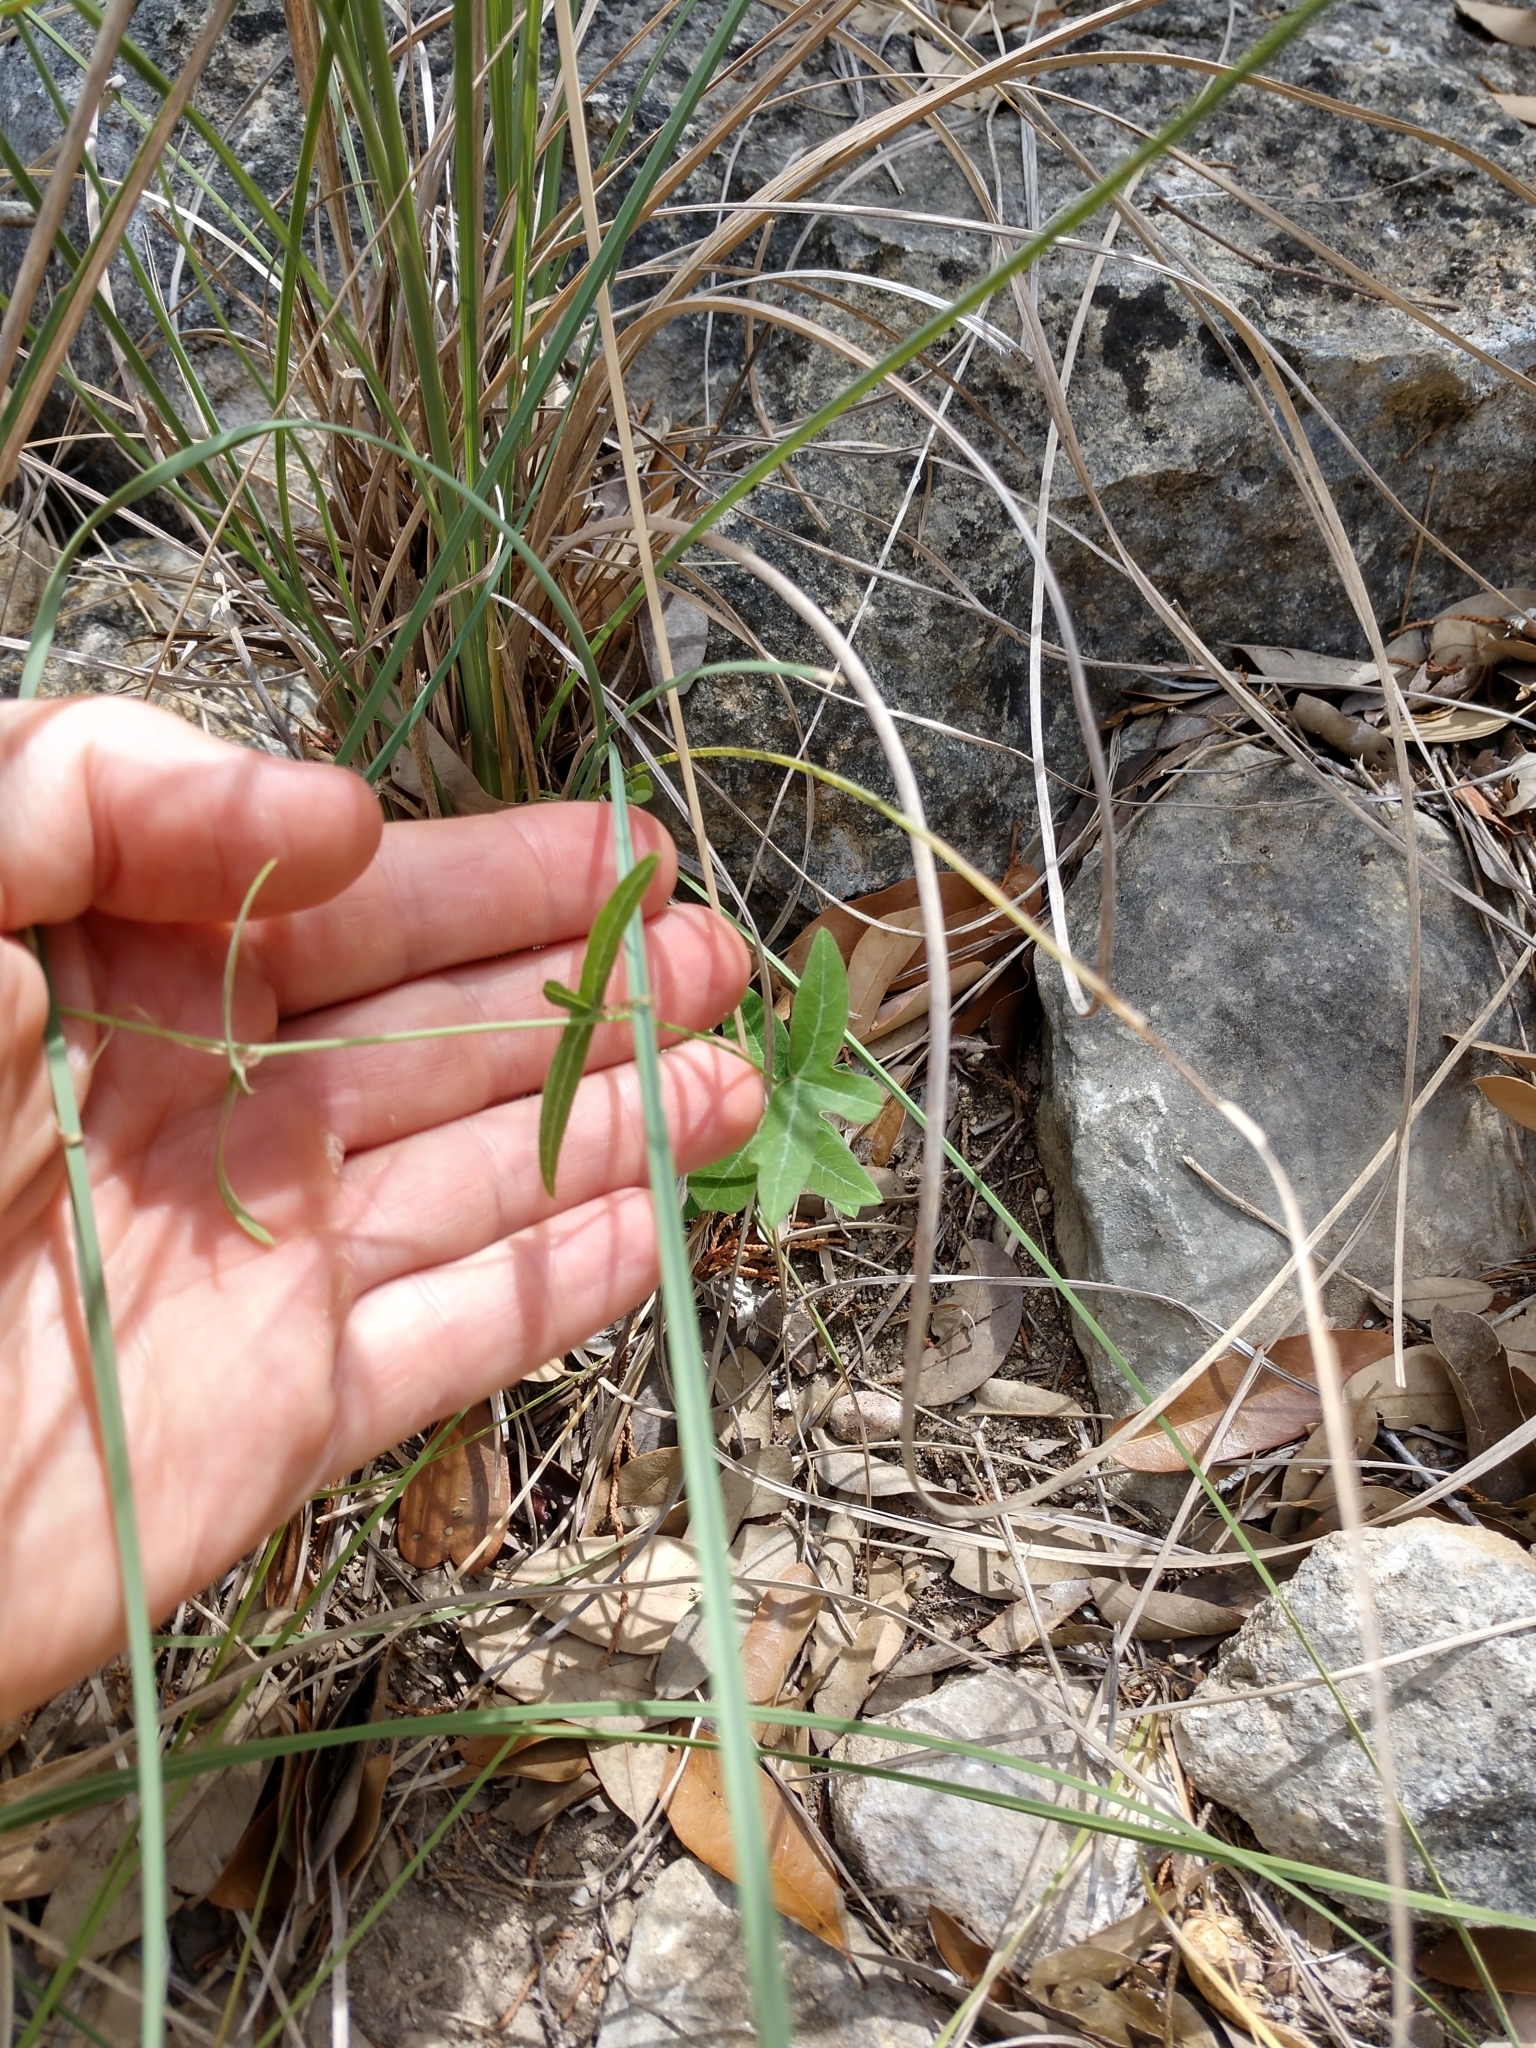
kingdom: Plantae
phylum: Tracheophyta
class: Magnoliopsida
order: Malpighiales
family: Passifloraceae
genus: Passiflora
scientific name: Passiflora tenuiloba
